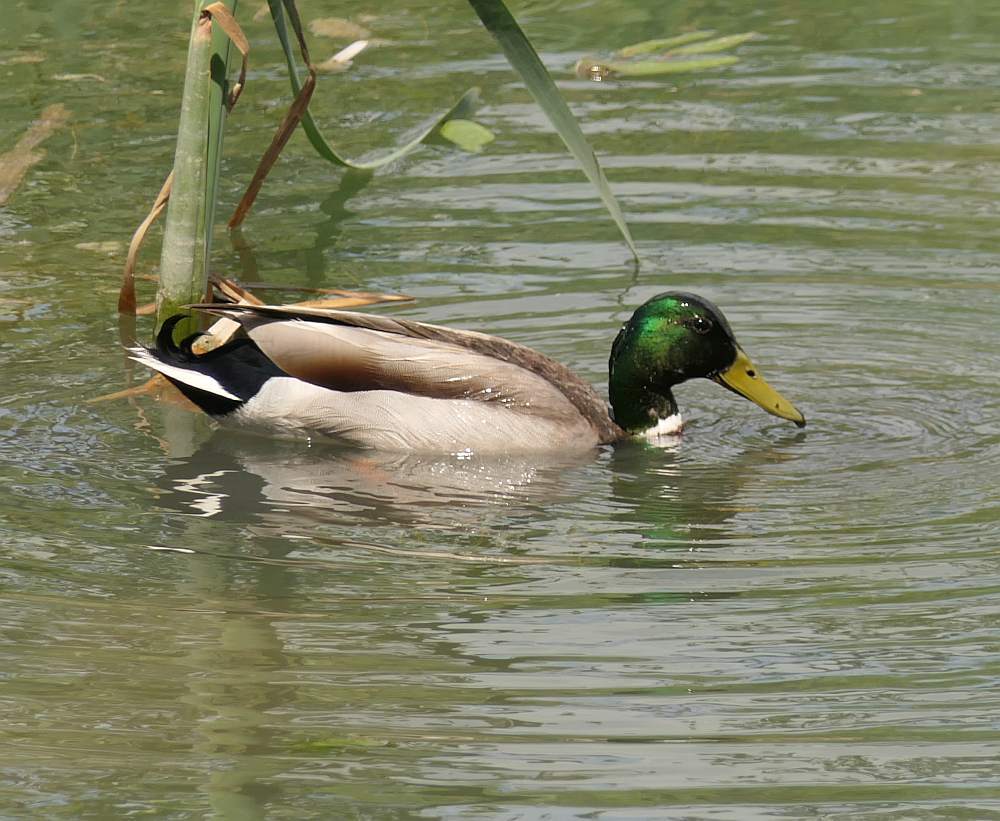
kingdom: Animalia
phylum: Chordata
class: Aves
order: Anseriformes
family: Anatidae
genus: Anas
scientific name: Anas platyrhynchos
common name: Mallard
